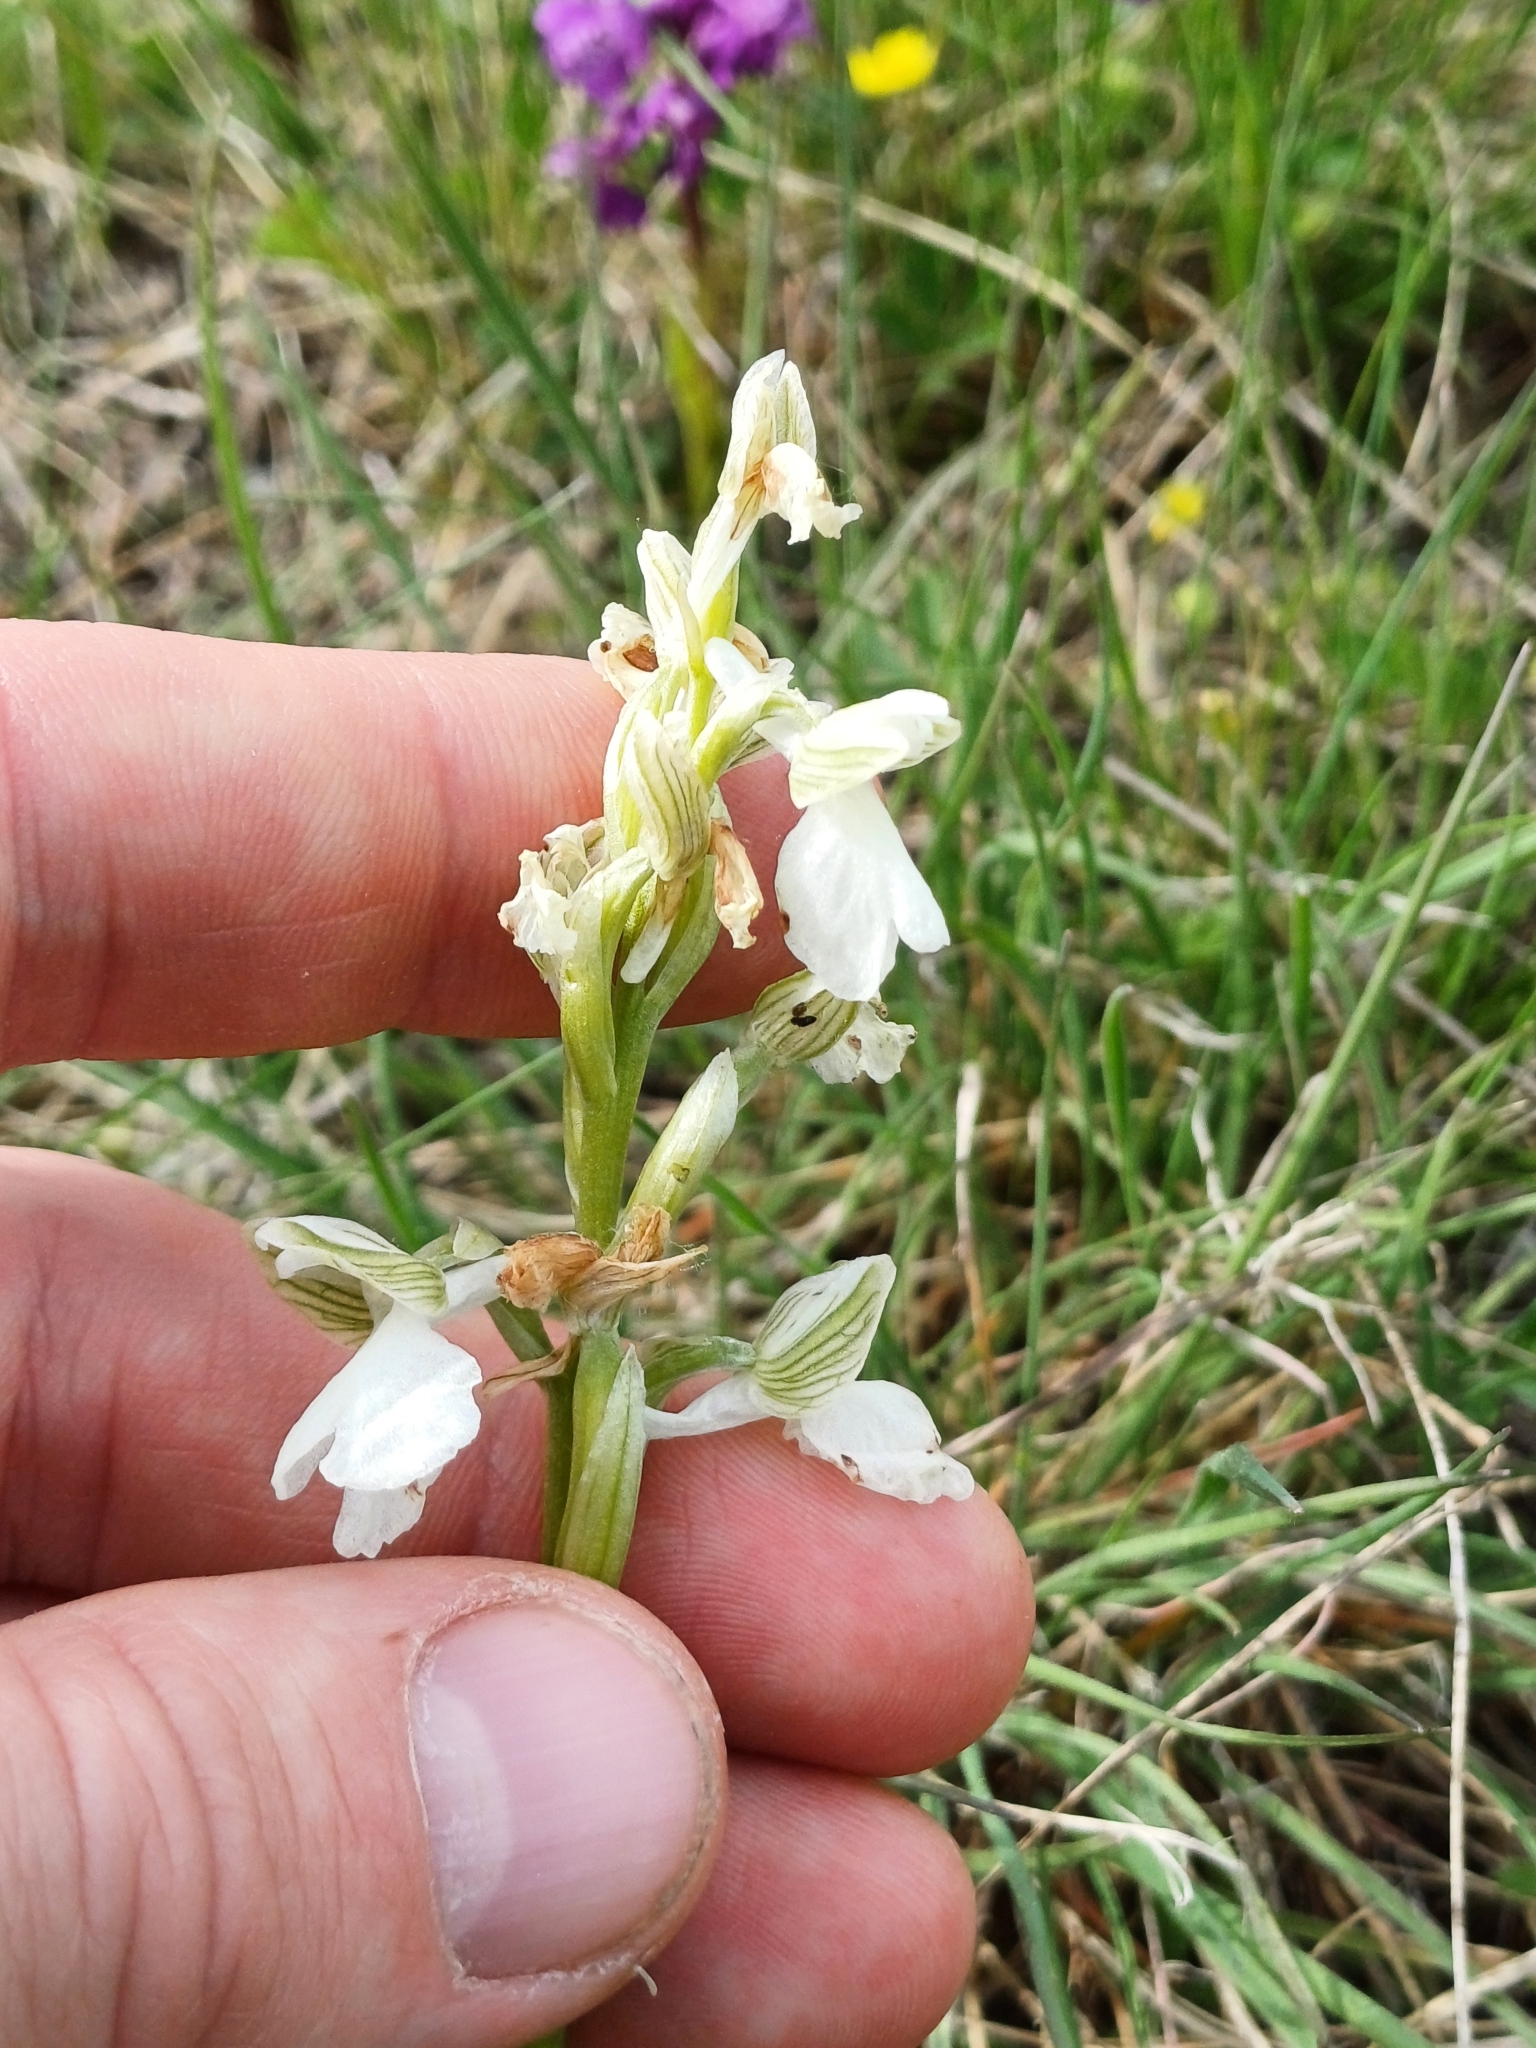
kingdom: Plantae
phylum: Tracheophyta
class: Liliopsida
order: Asparagales
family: Orchidaceae
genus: Anacamptis
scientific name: Anacamptis morio
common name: Green-winged orchid
